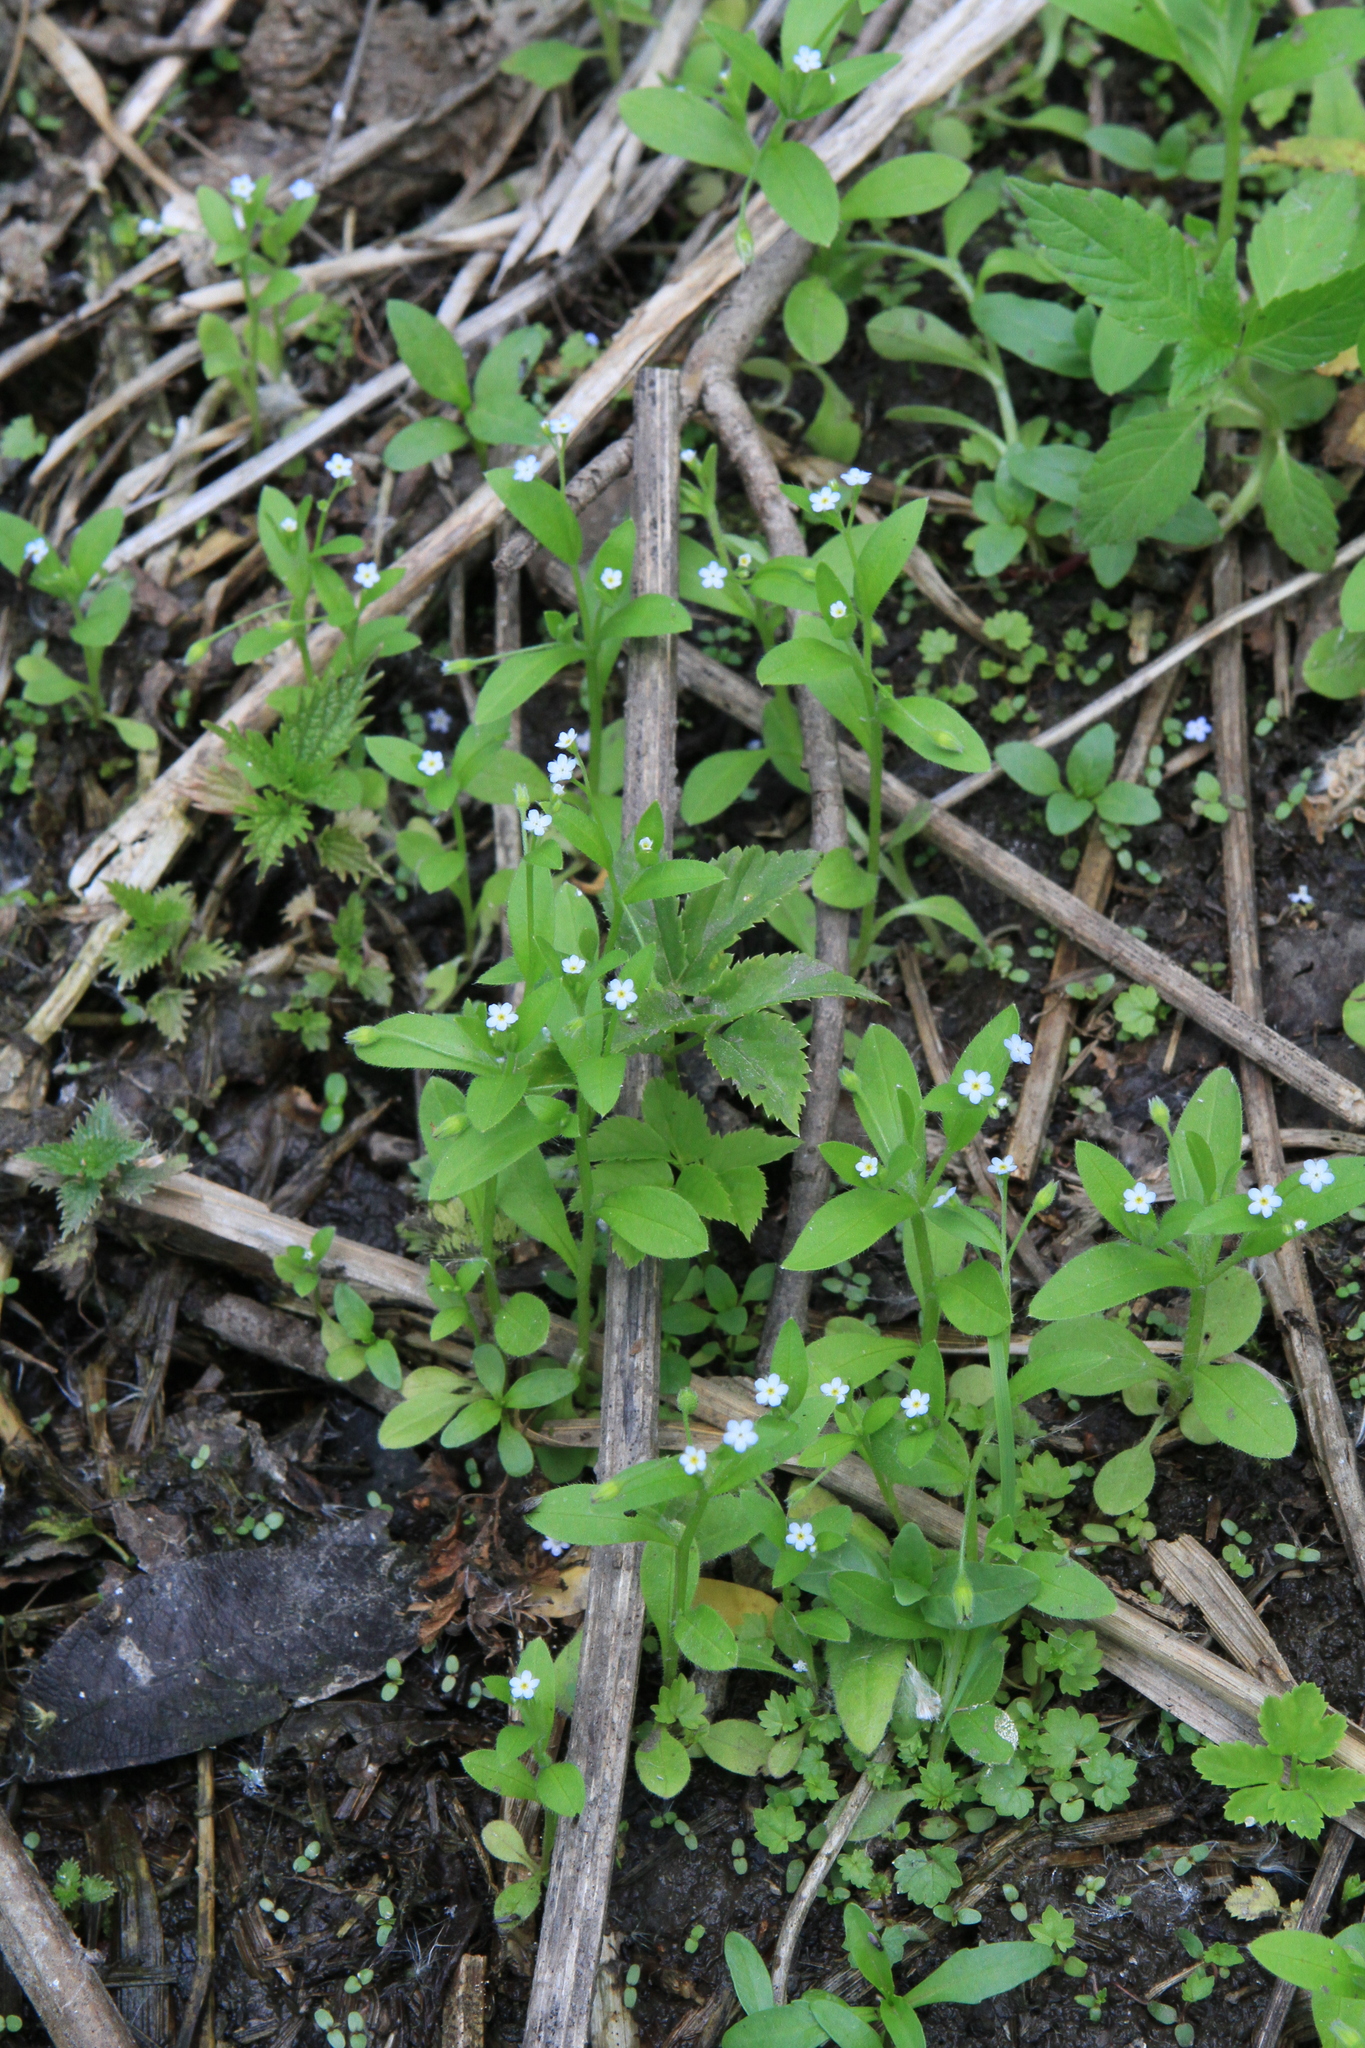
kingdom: Plantae
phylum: Tracheophyta
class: Magnoliopsida
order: Boraginales
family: Boraginaceae
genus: Myosotis
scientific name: Myosotis sparsiflora
